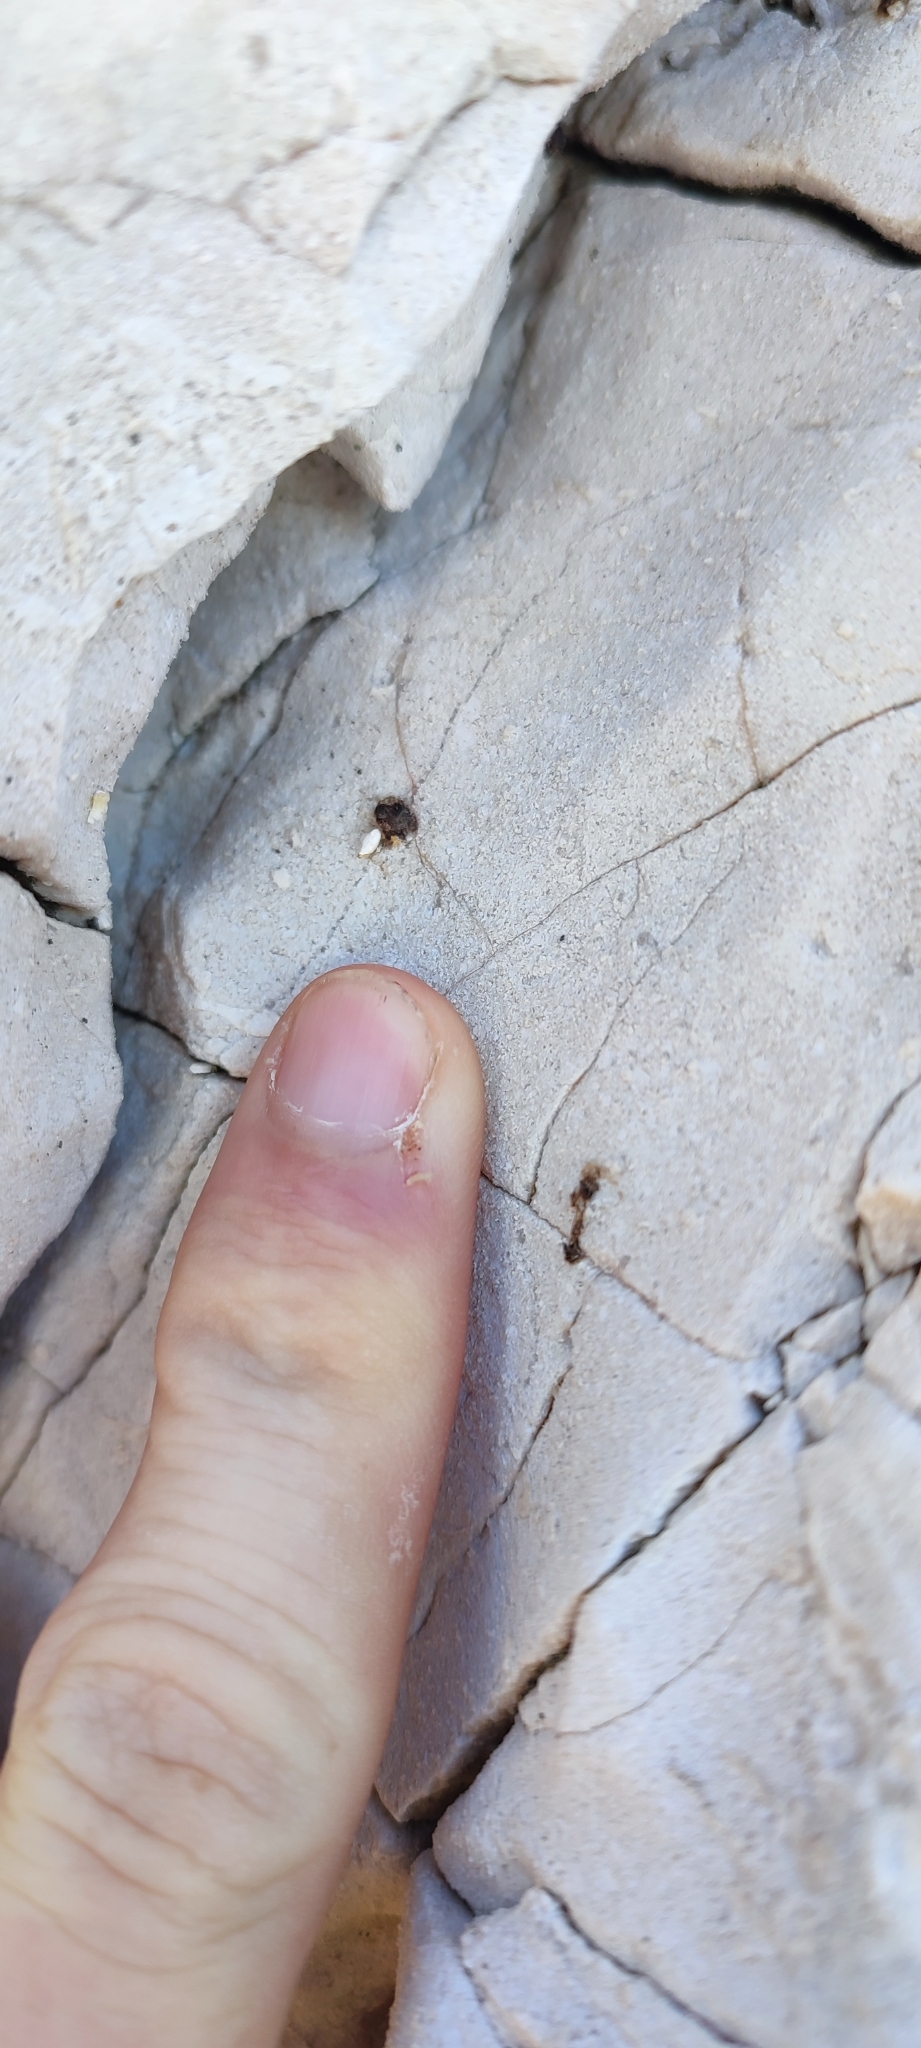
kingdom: Animalia
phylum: Chordata
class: Squamata
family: Sphaerodactylidae
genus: Euleptes
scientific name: Euleptes europaea
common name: English common name not available
